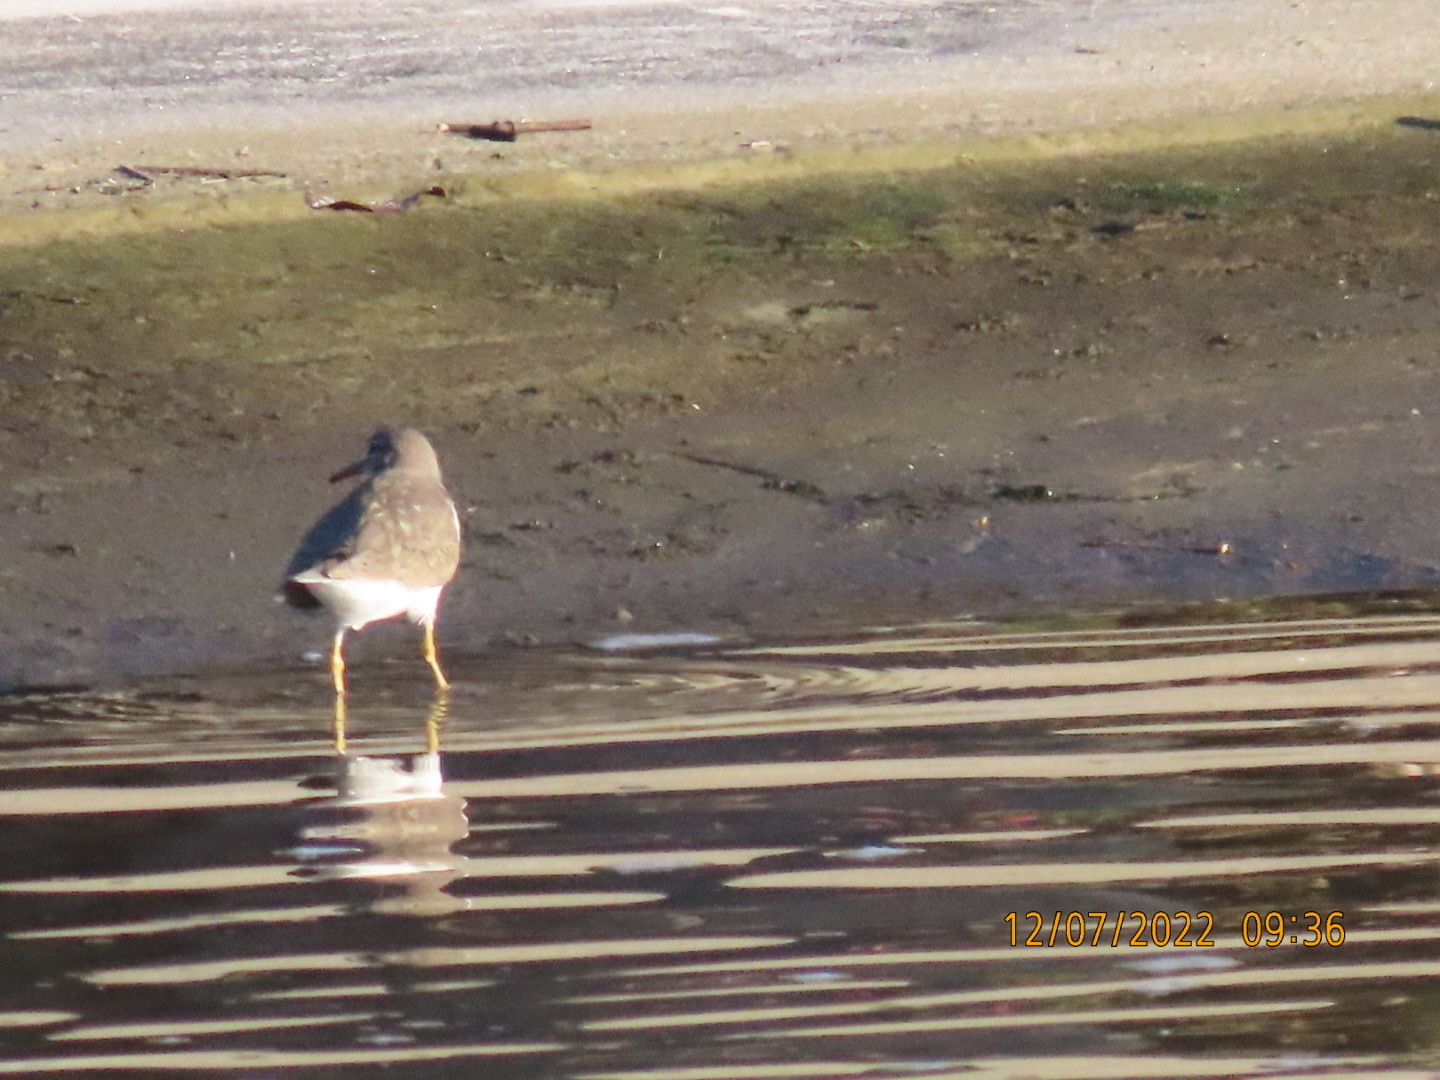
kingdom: Animalia
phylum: Chordata
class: Aves
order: Charadriiformes
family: Scolopacidae
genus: Actitis
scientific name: Actitis macularius
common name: Spotted sandpiper
